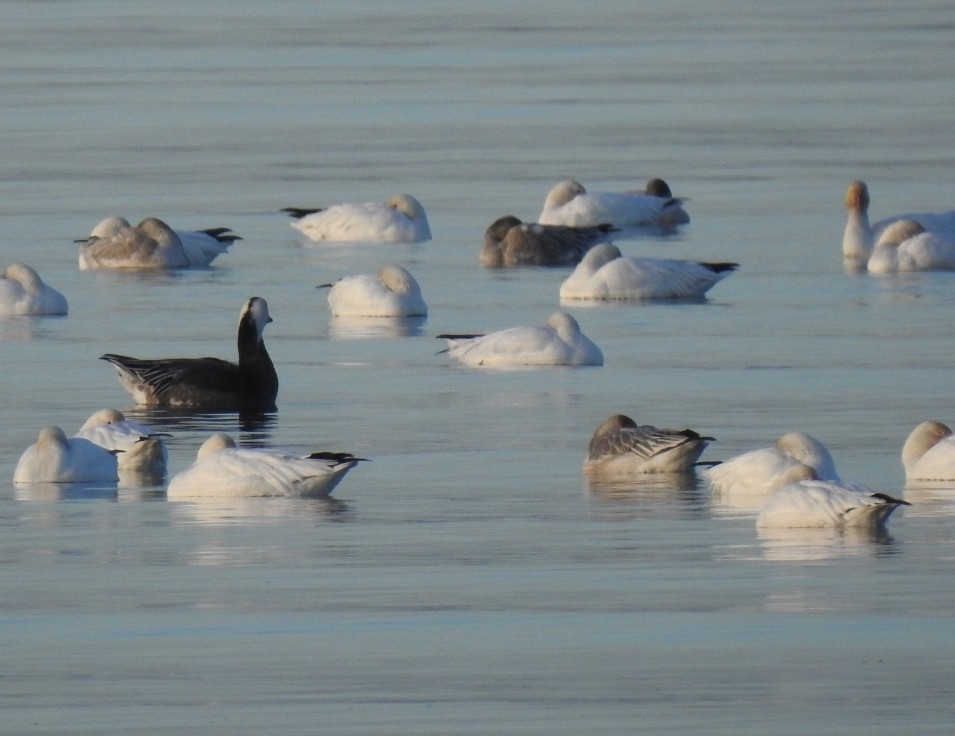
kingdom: Animalia
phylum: Chordata
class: Aves
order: Anseriformes
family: Anatidae
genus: Anser
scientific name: Anser caerulescens
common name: Snow goose
